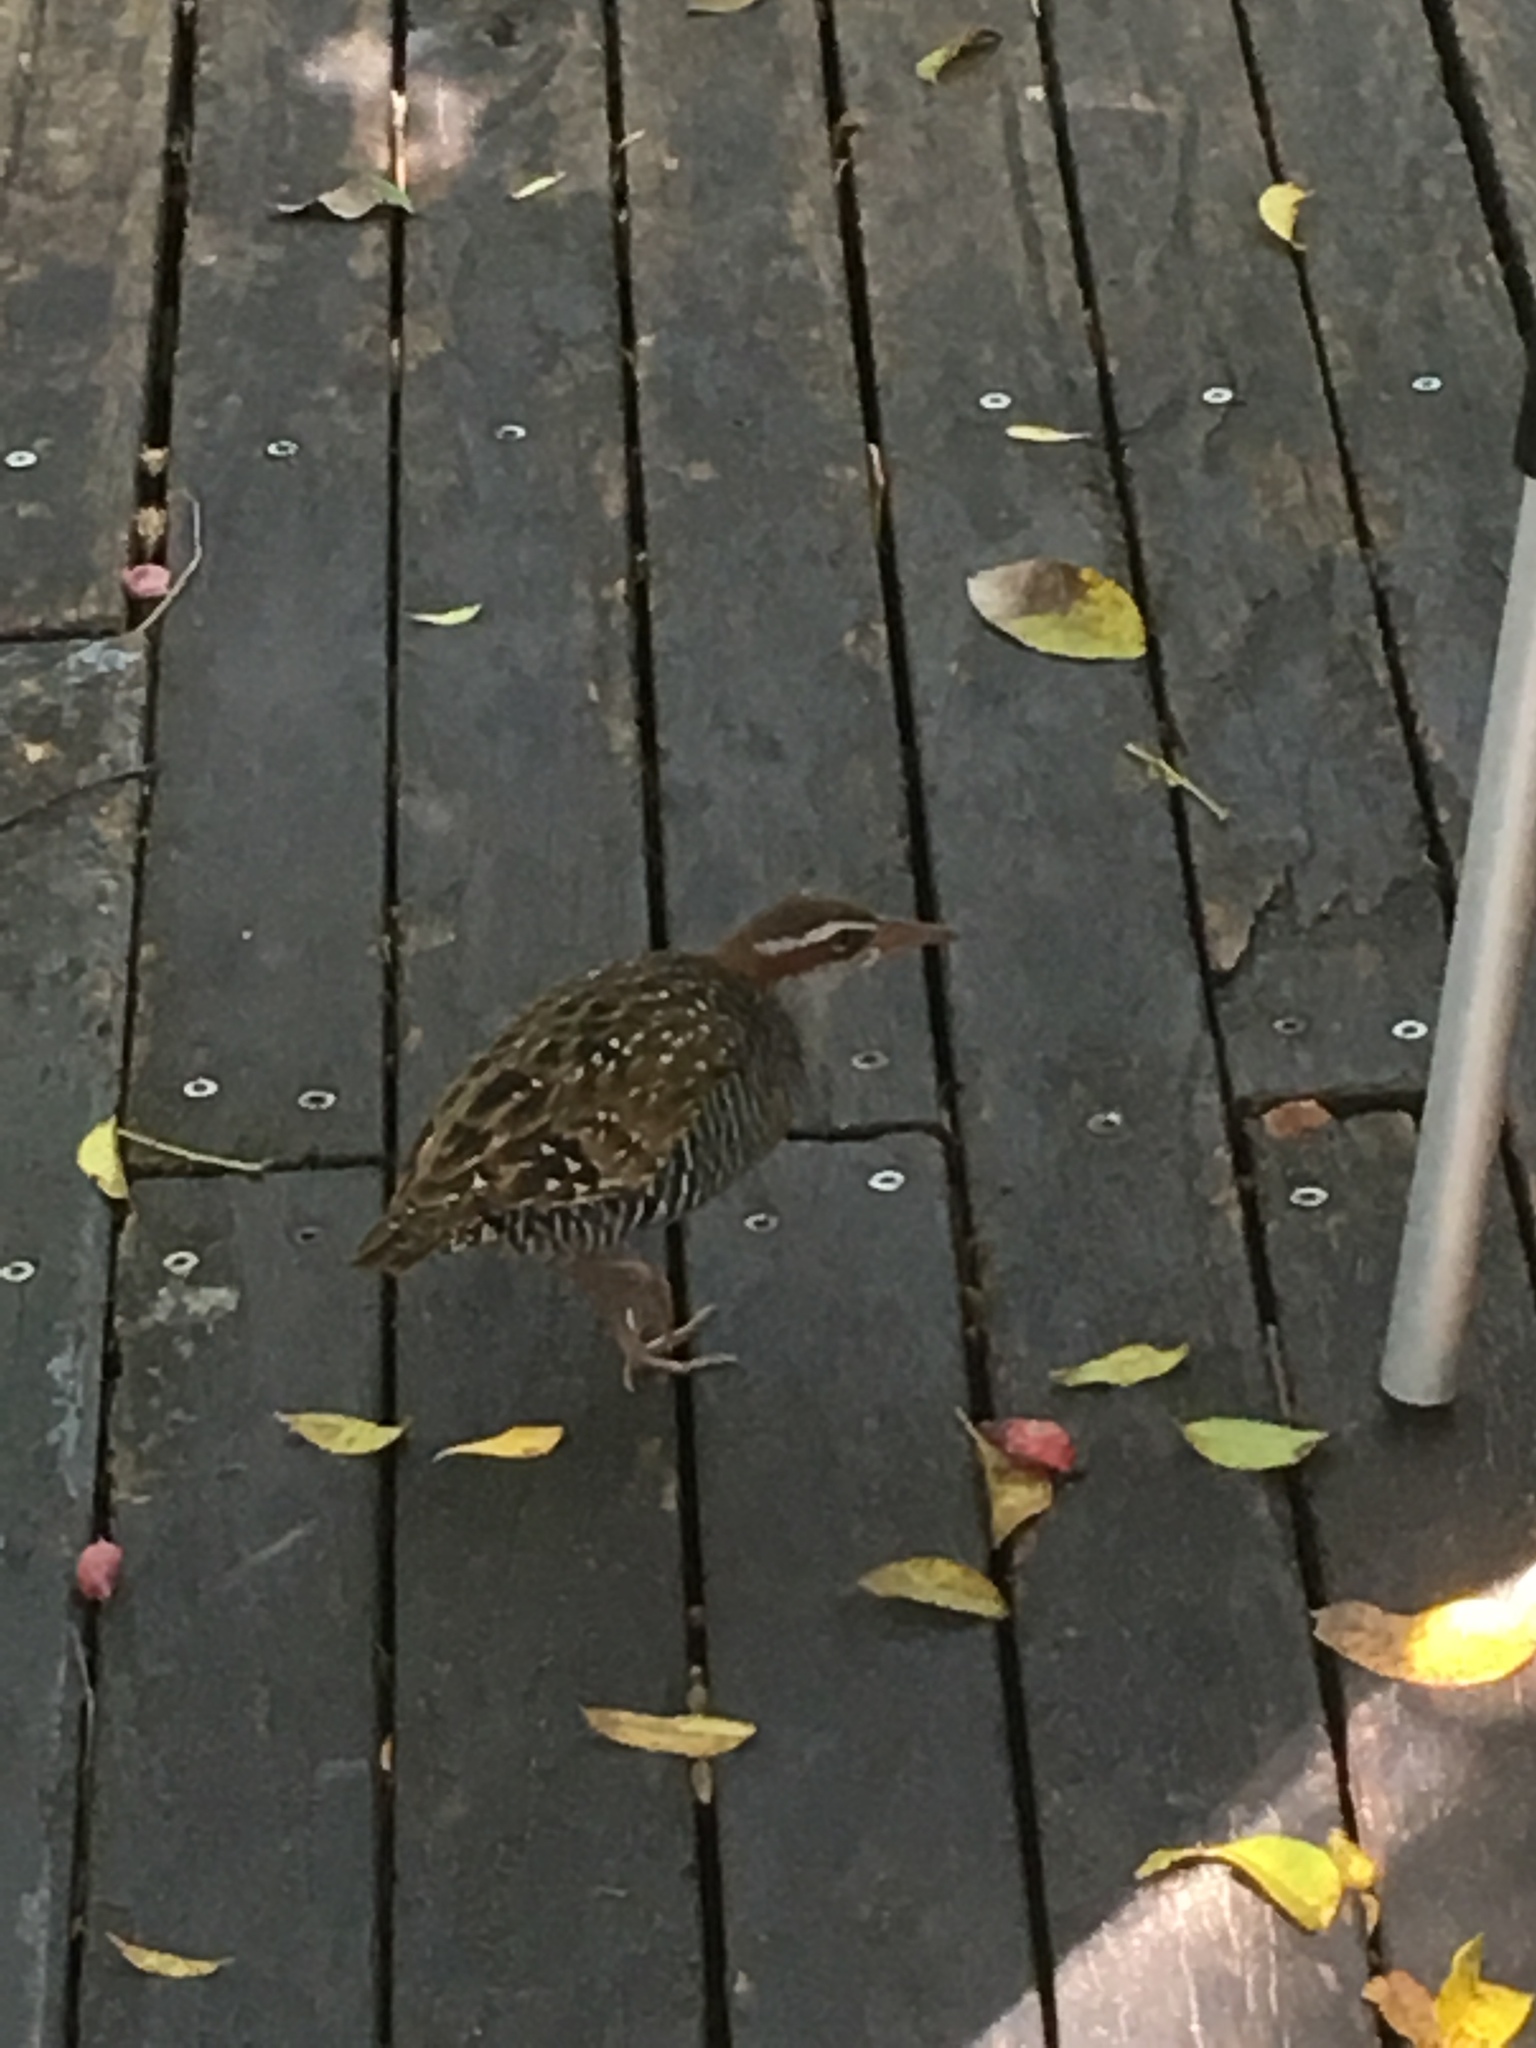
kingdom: Animalia
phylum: Chordata
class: Aves
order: Gruiformes
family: Rallidae
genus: Gallirallus
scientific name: Gallirallus philippensis
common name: Buff-banded rail
